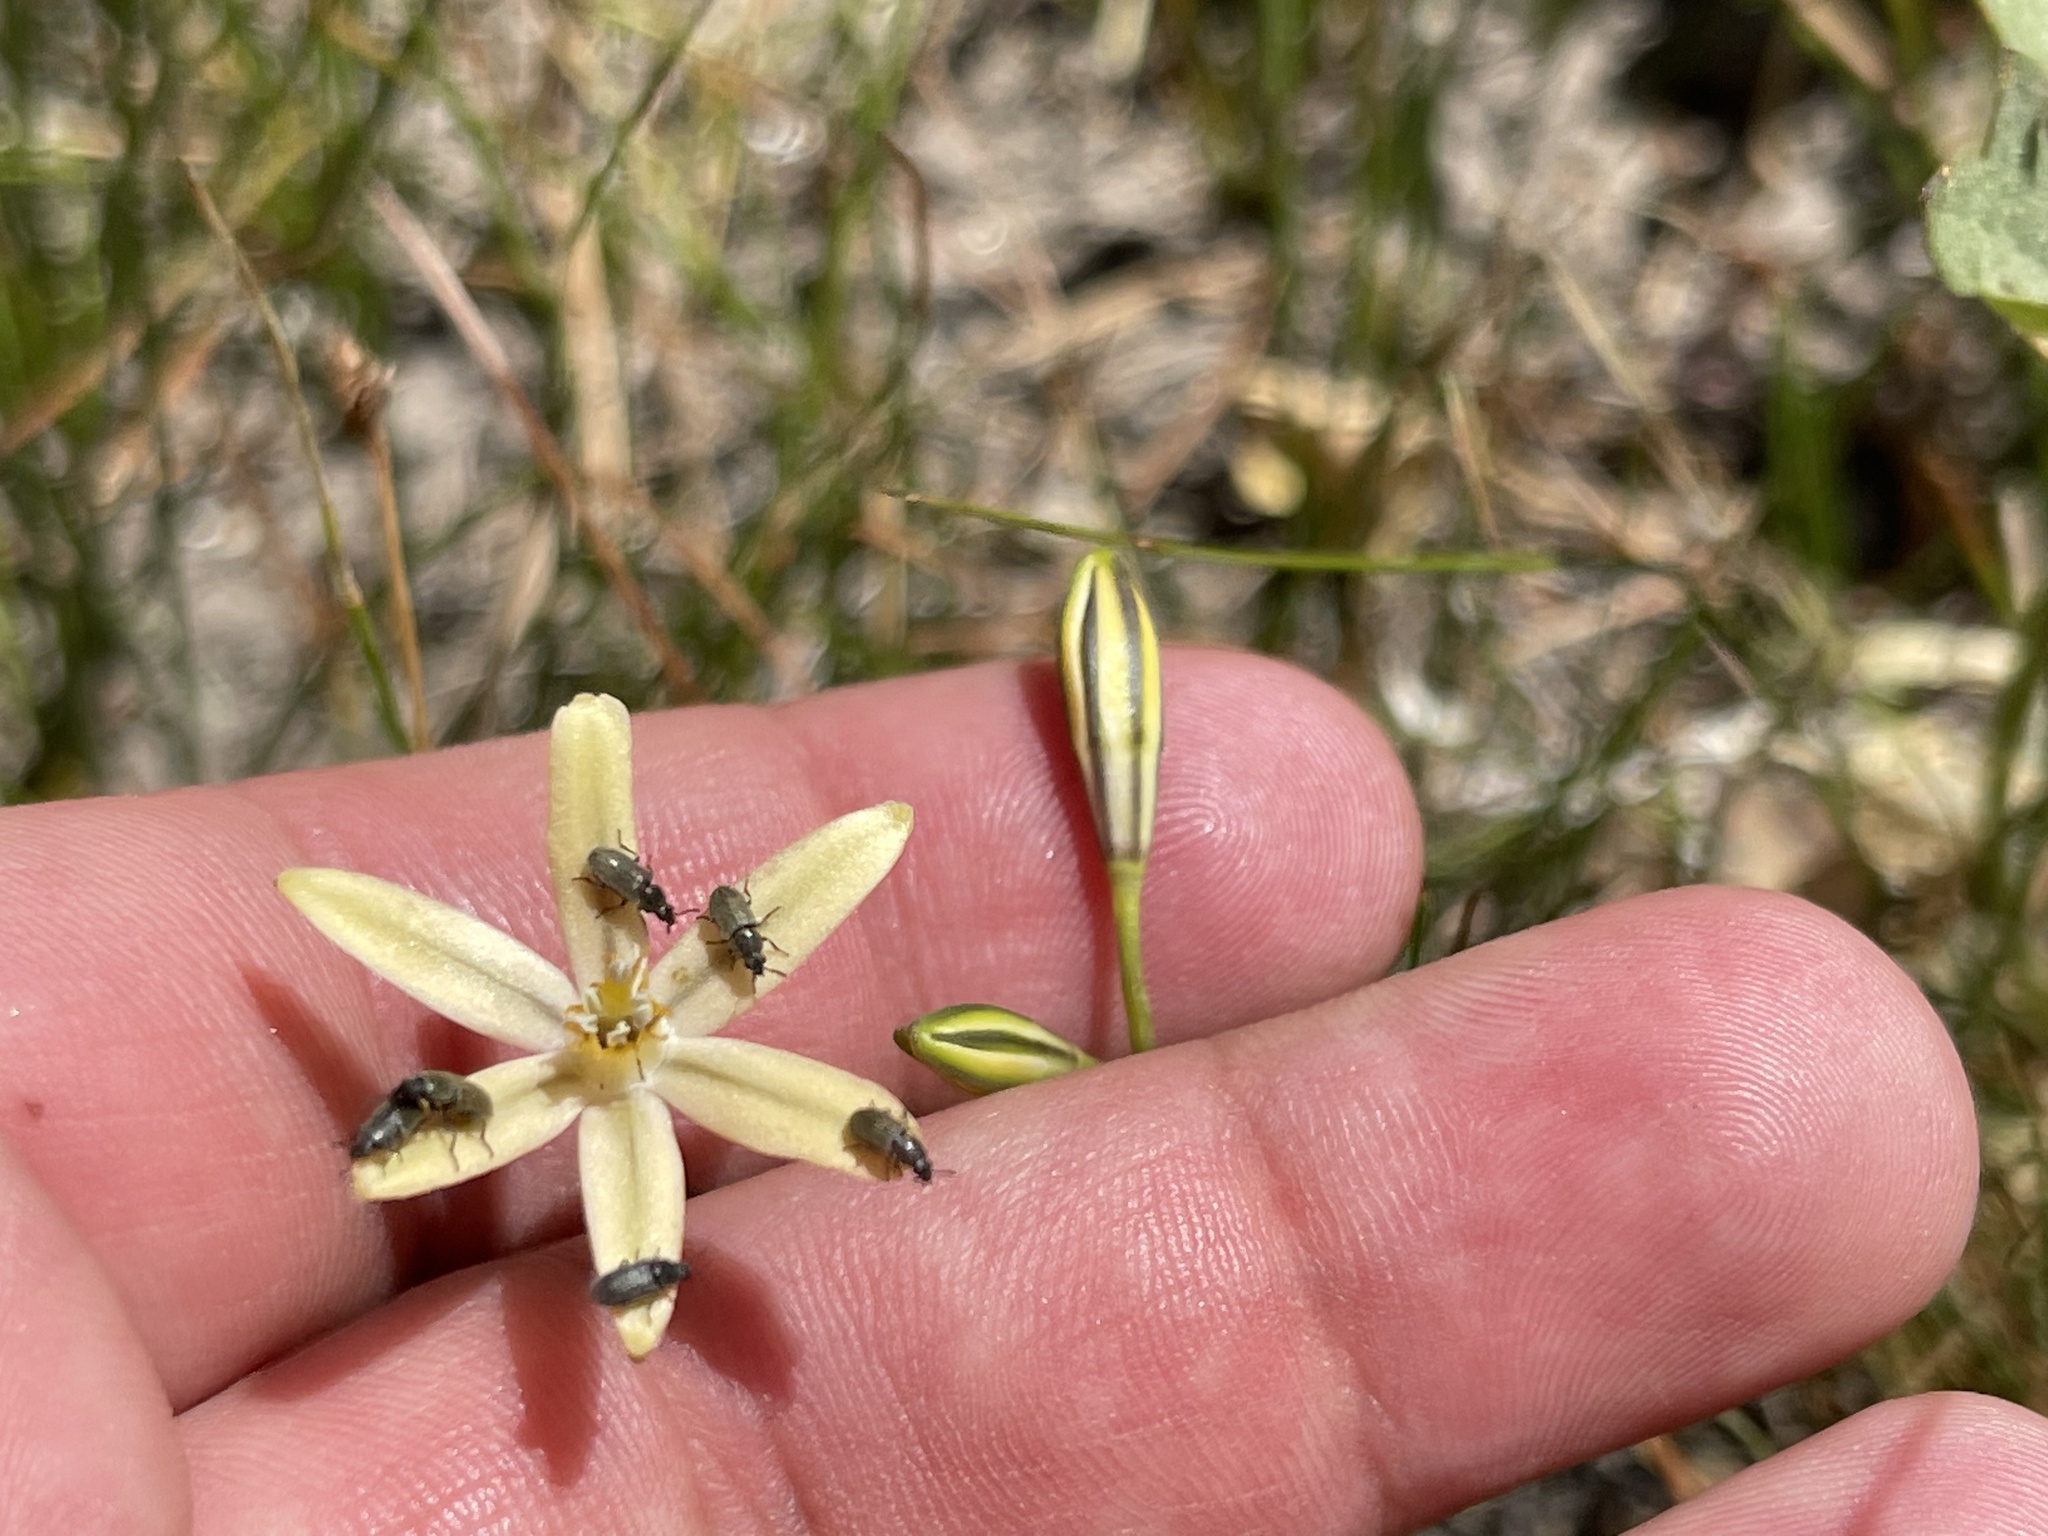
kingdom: Plantae
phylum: Tracheophyta
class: Liliopsida
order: Asparagales
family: Asparagaceae
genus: Triteleia
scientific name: Triteleia ixioides
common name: Yellow-brodiaea
